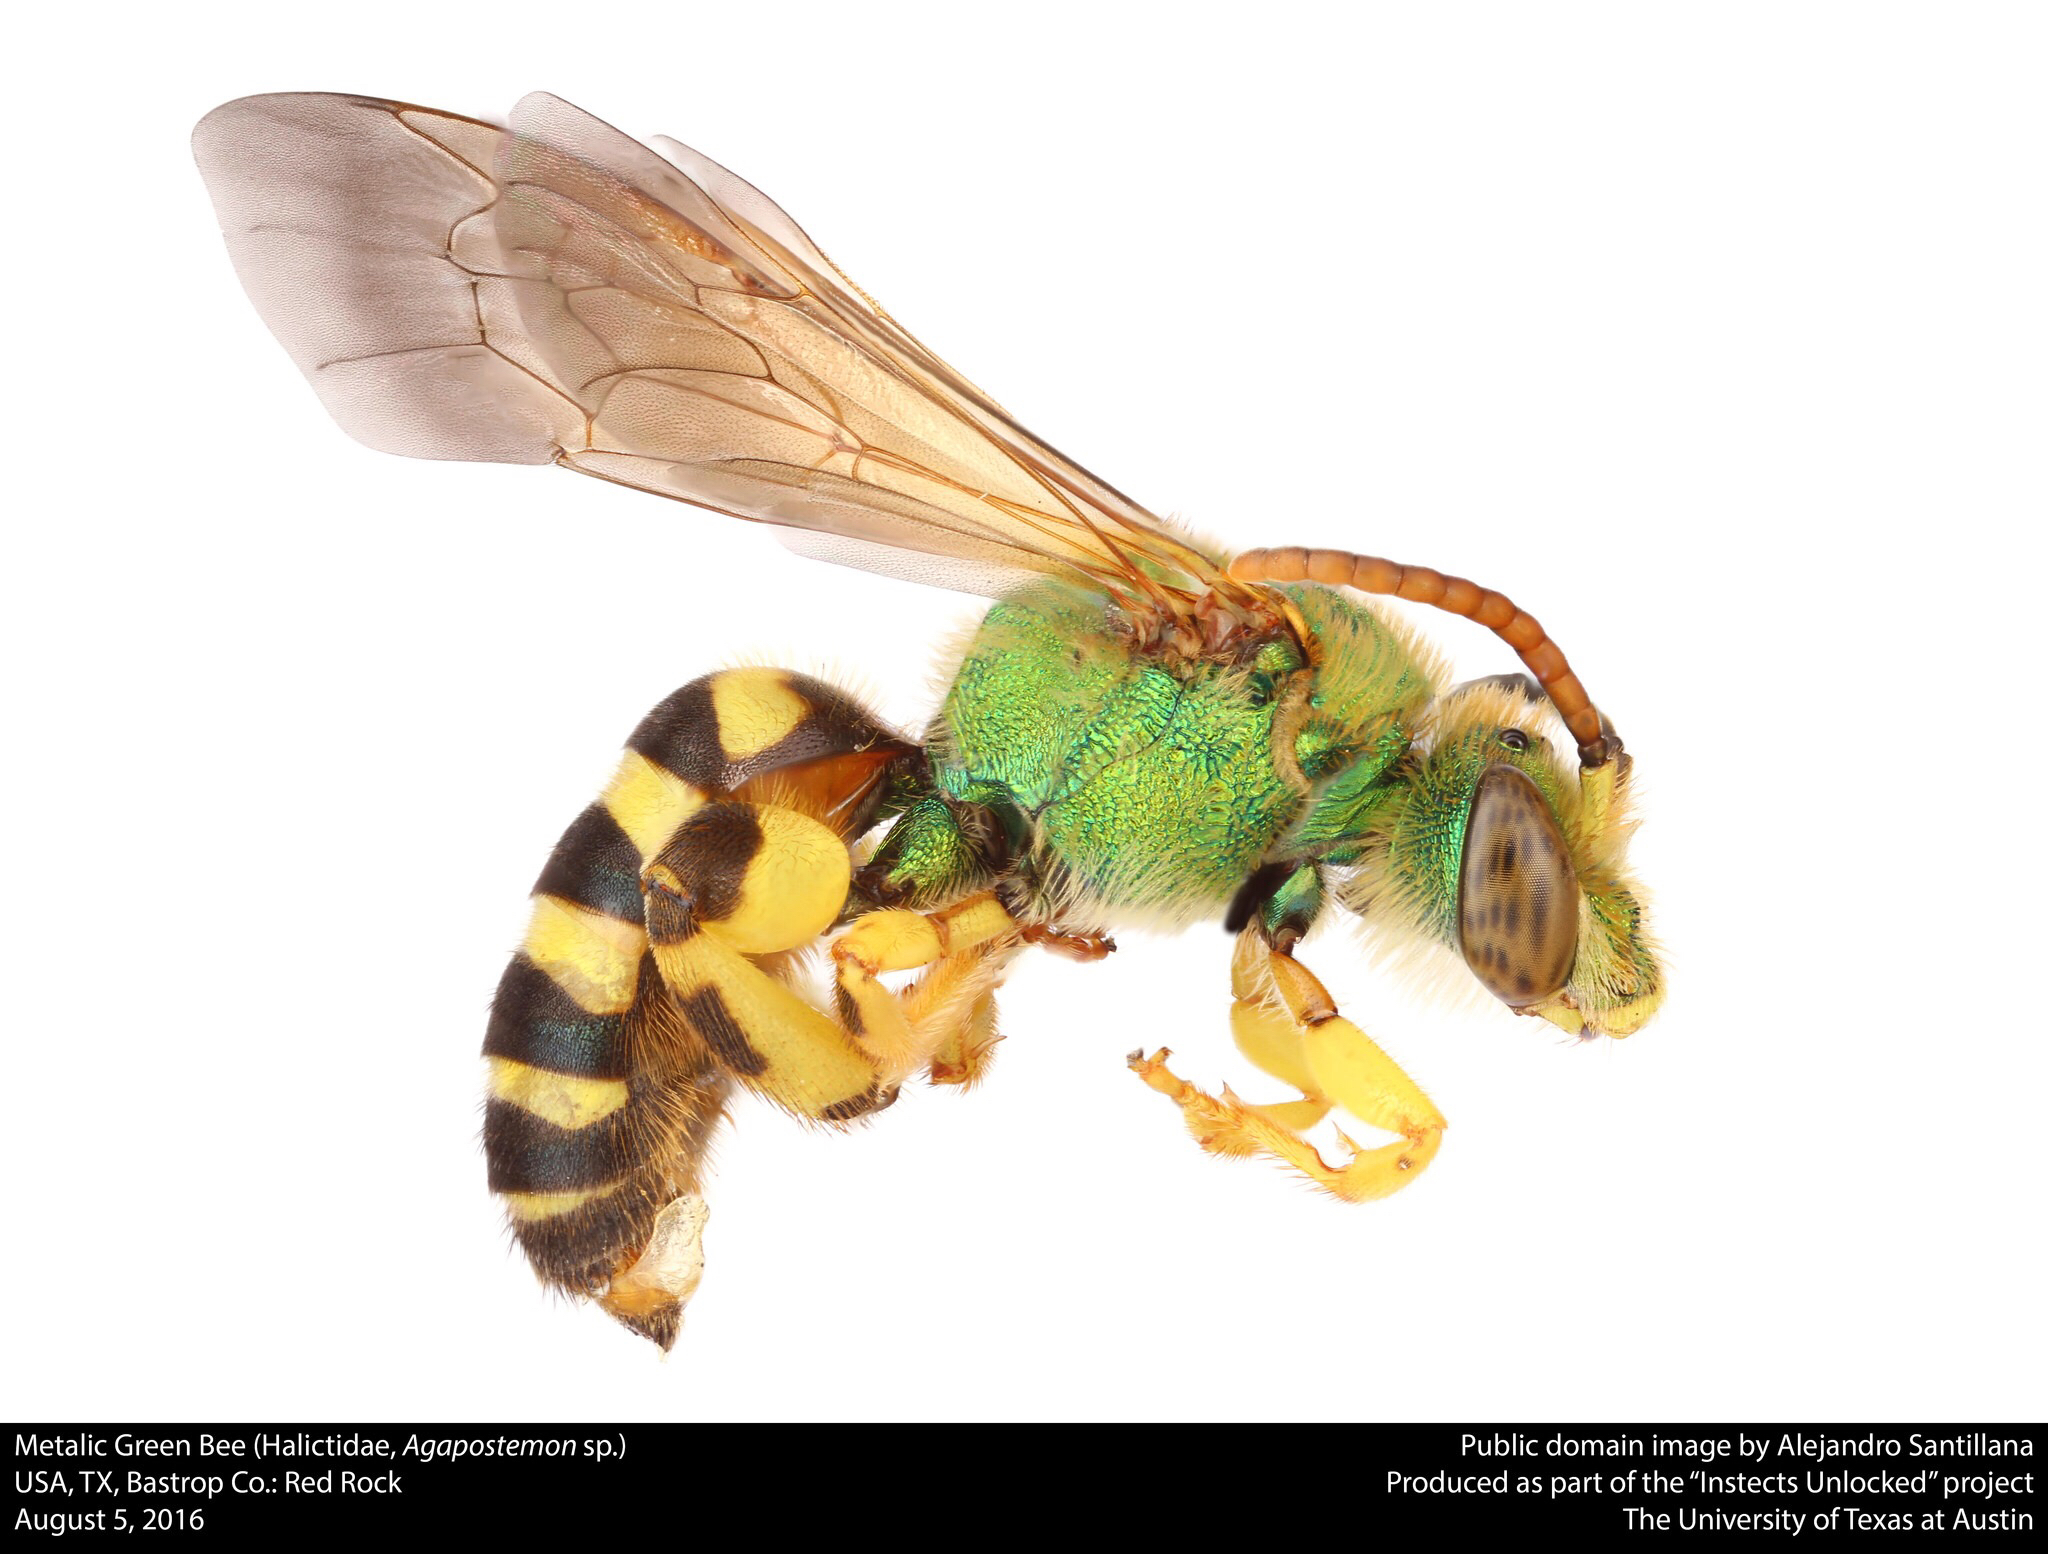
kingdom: Animalia
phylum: Arthropoda
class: Insecta
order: Hymenoptera
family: Halictidae
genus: Agapostemon
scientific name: Agapostemon texanus
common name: Texas striped sweat bee
